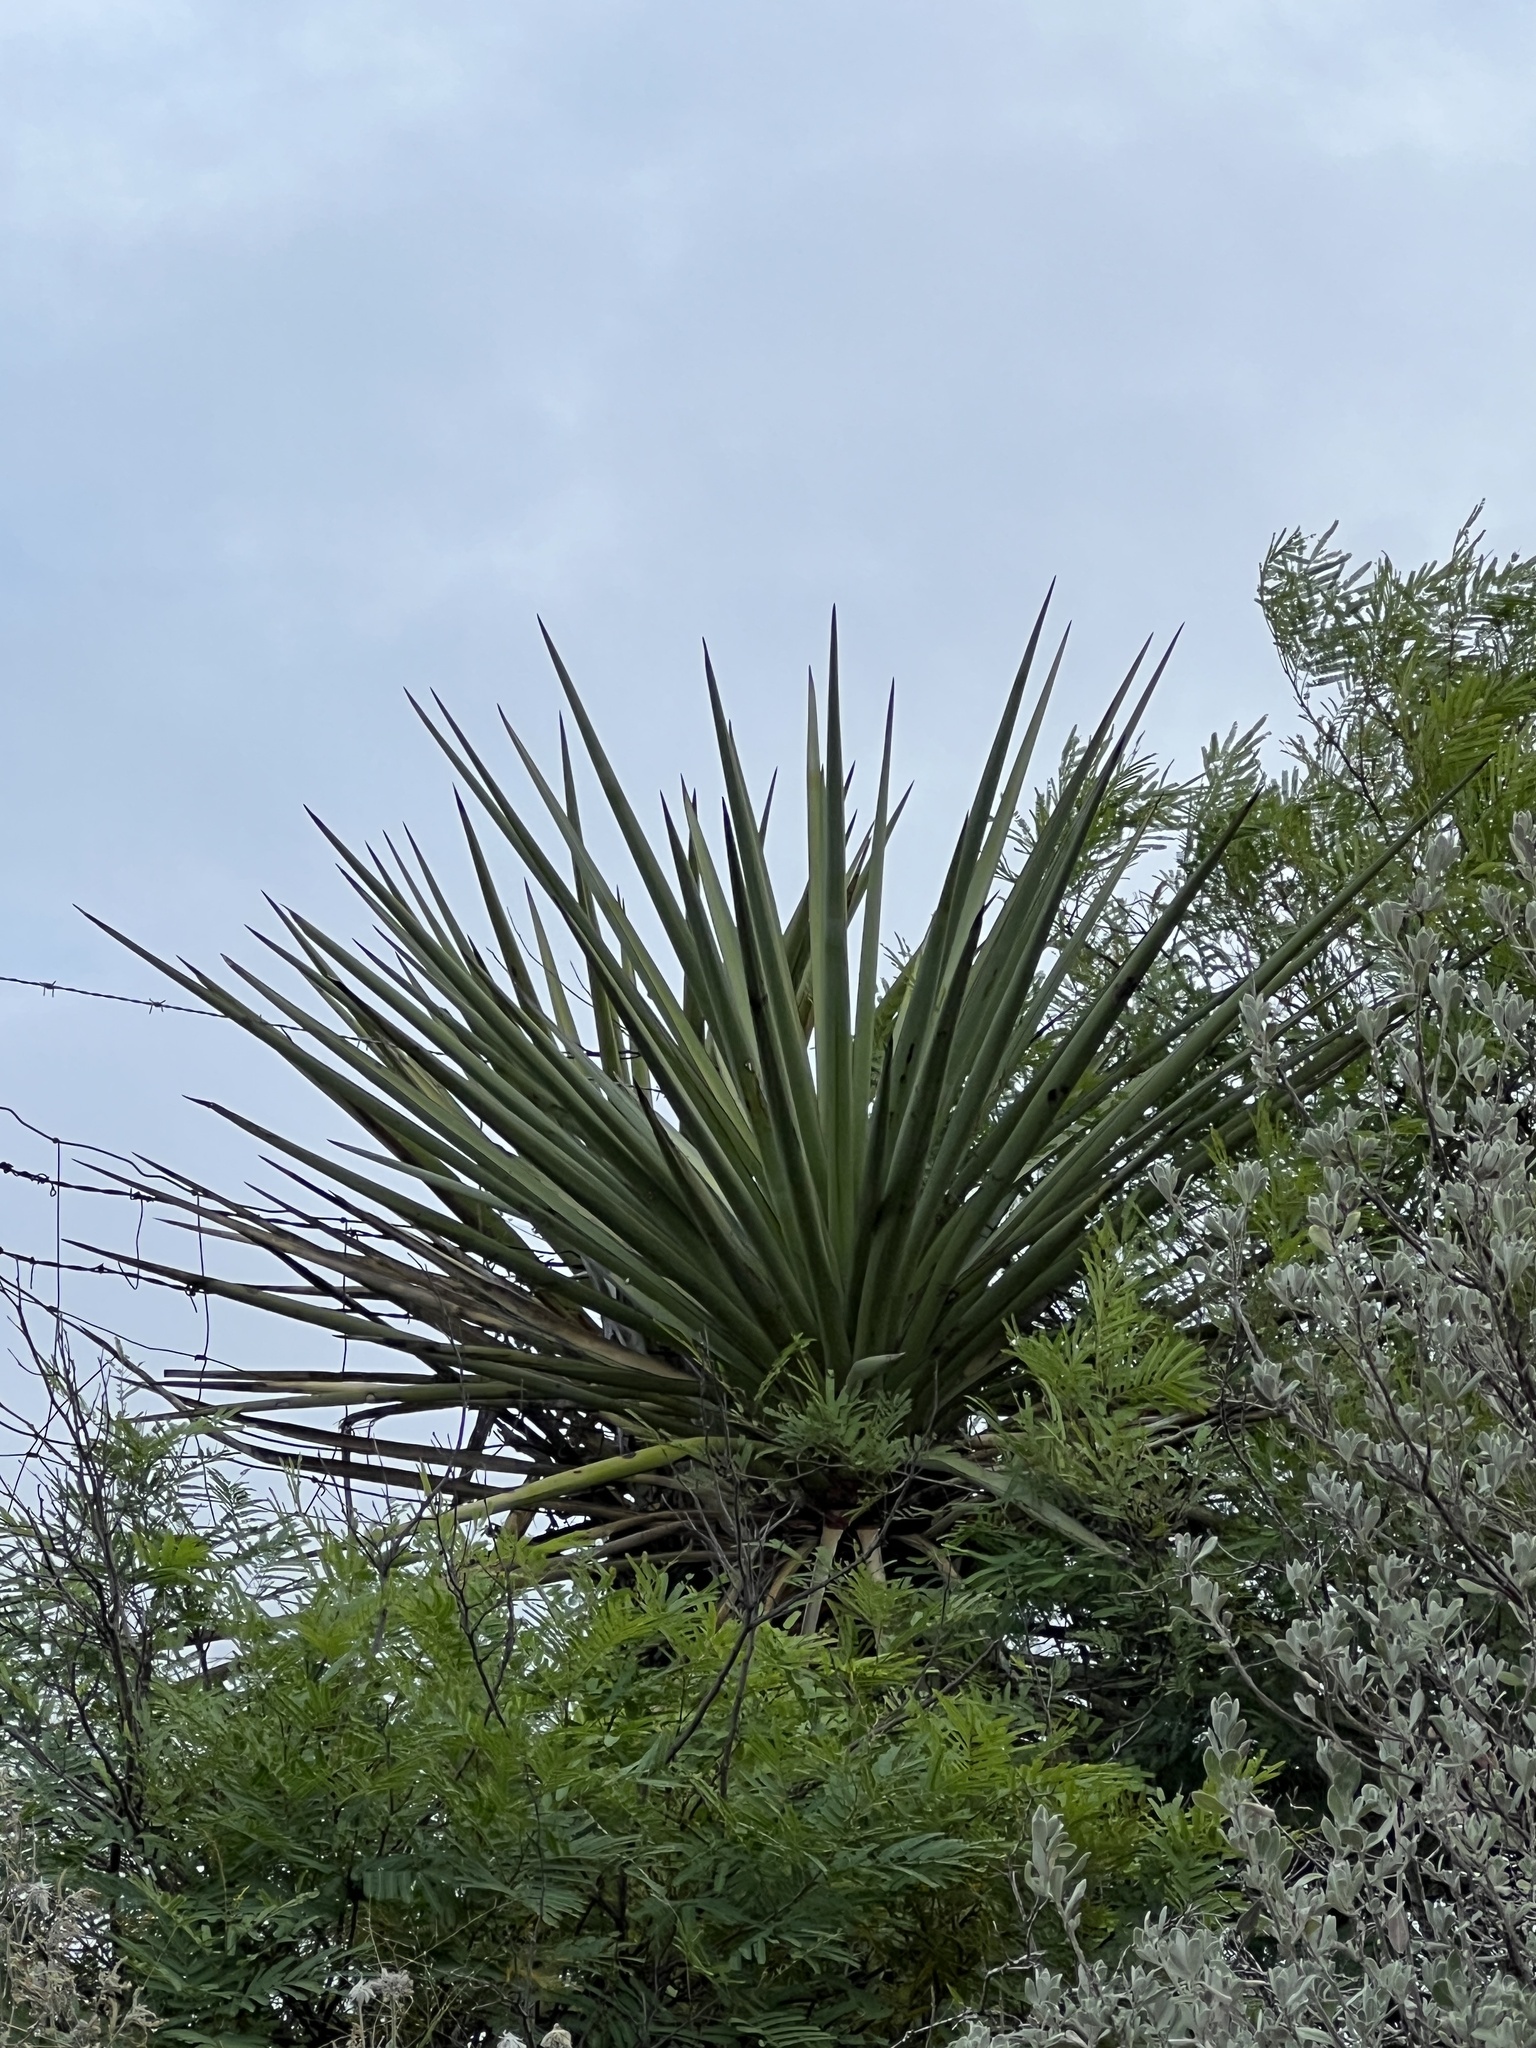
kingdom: Plantae
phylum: Tracheophyta
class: Liliopsida
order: Asparagales
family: Asparagaceae
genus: Yucca
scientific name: Yucca treculiana
